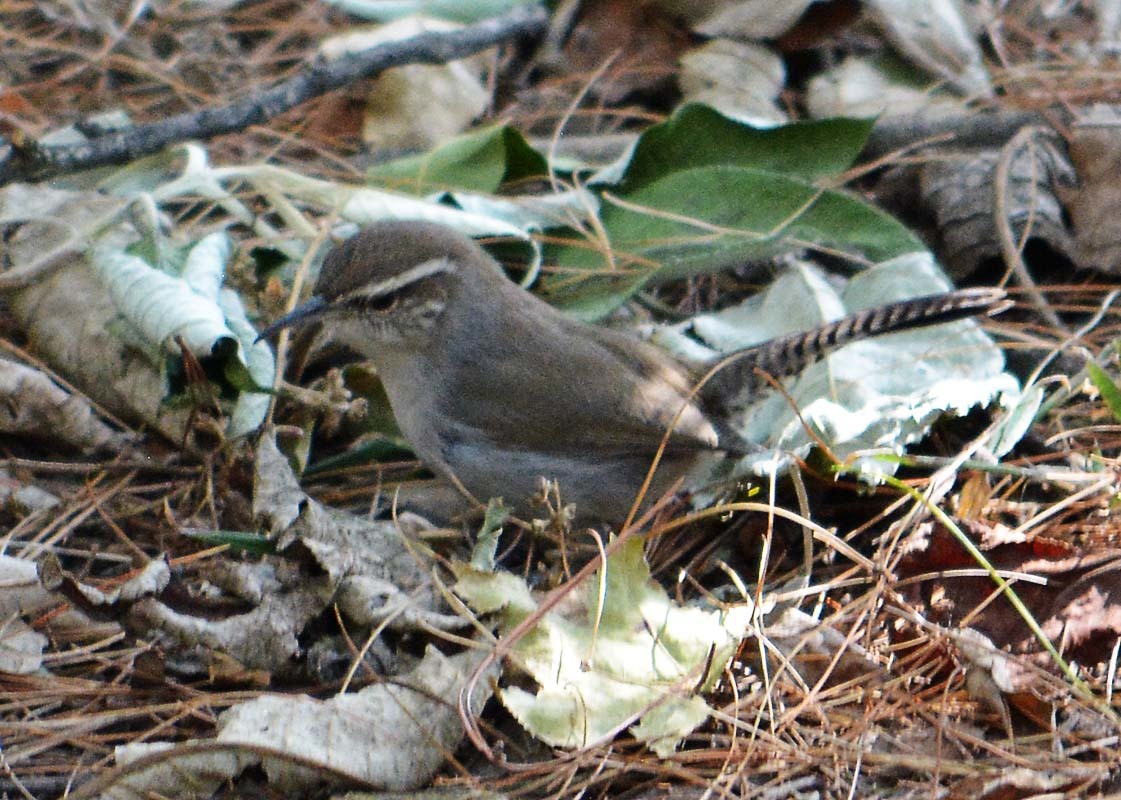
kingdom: Animalia
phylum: Chordata
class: Aves
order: Passeriformes
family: Troglodytidae
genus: Thryomanes
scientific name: Thryomanes bewickii
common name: Bewick's wren
